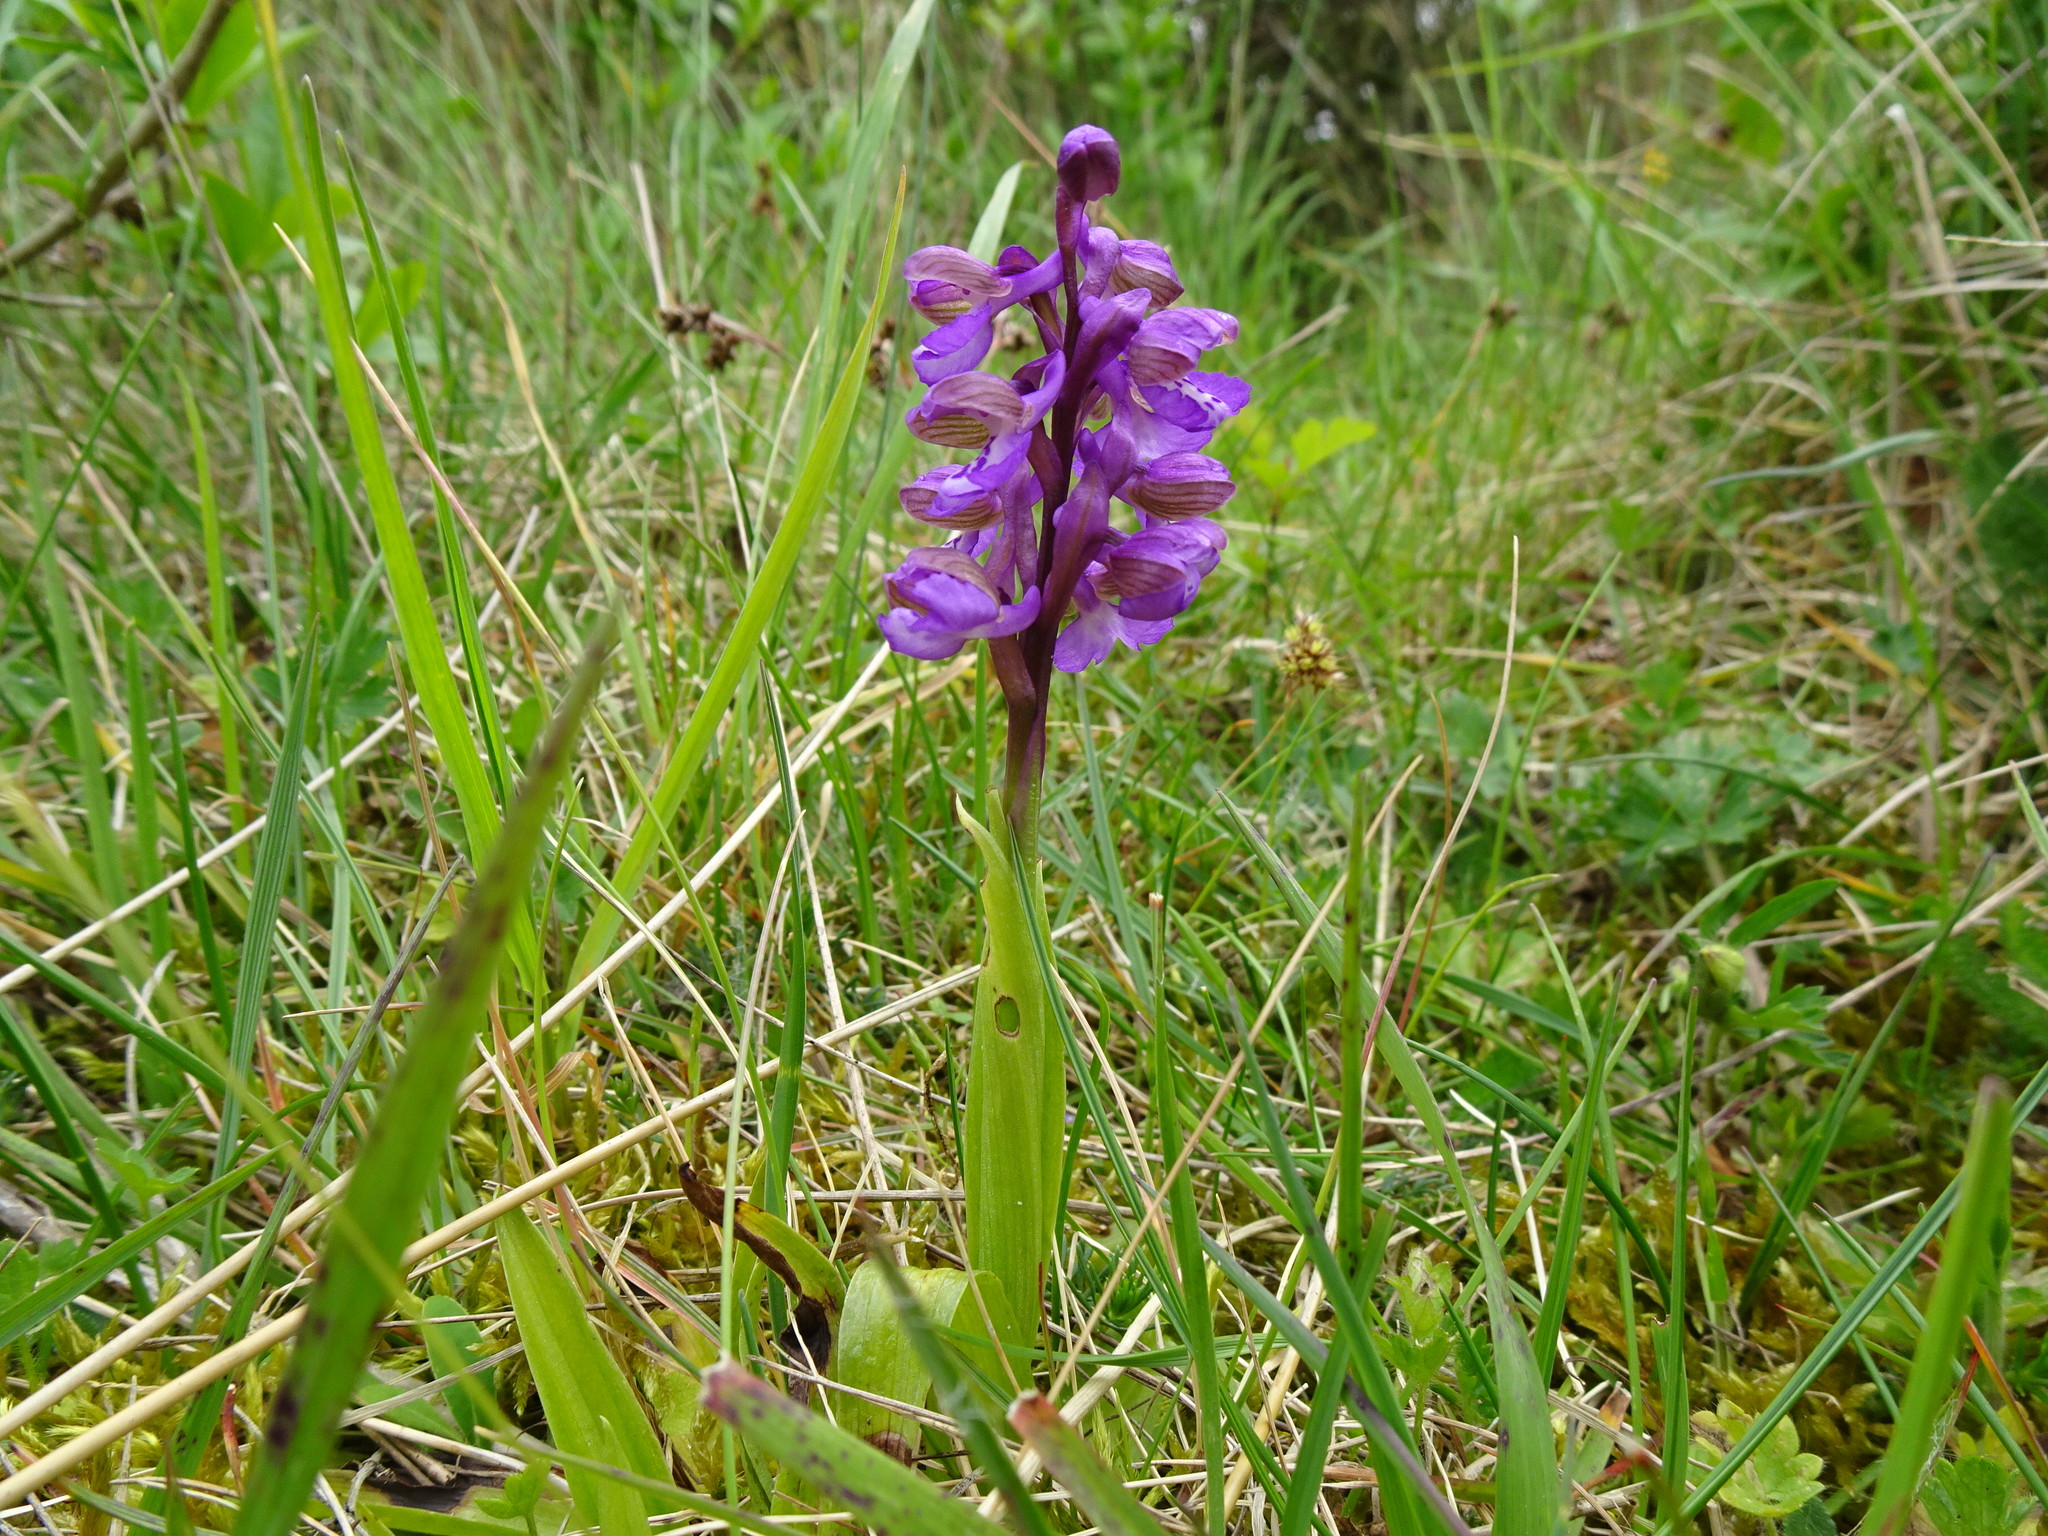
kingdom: Plantae
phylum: Tracheophyta
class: Liliopsida
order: Asparagales
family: Orchidaceae
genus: Anacamptis
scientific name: Anacamptis morio
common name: Green-winged orchid
